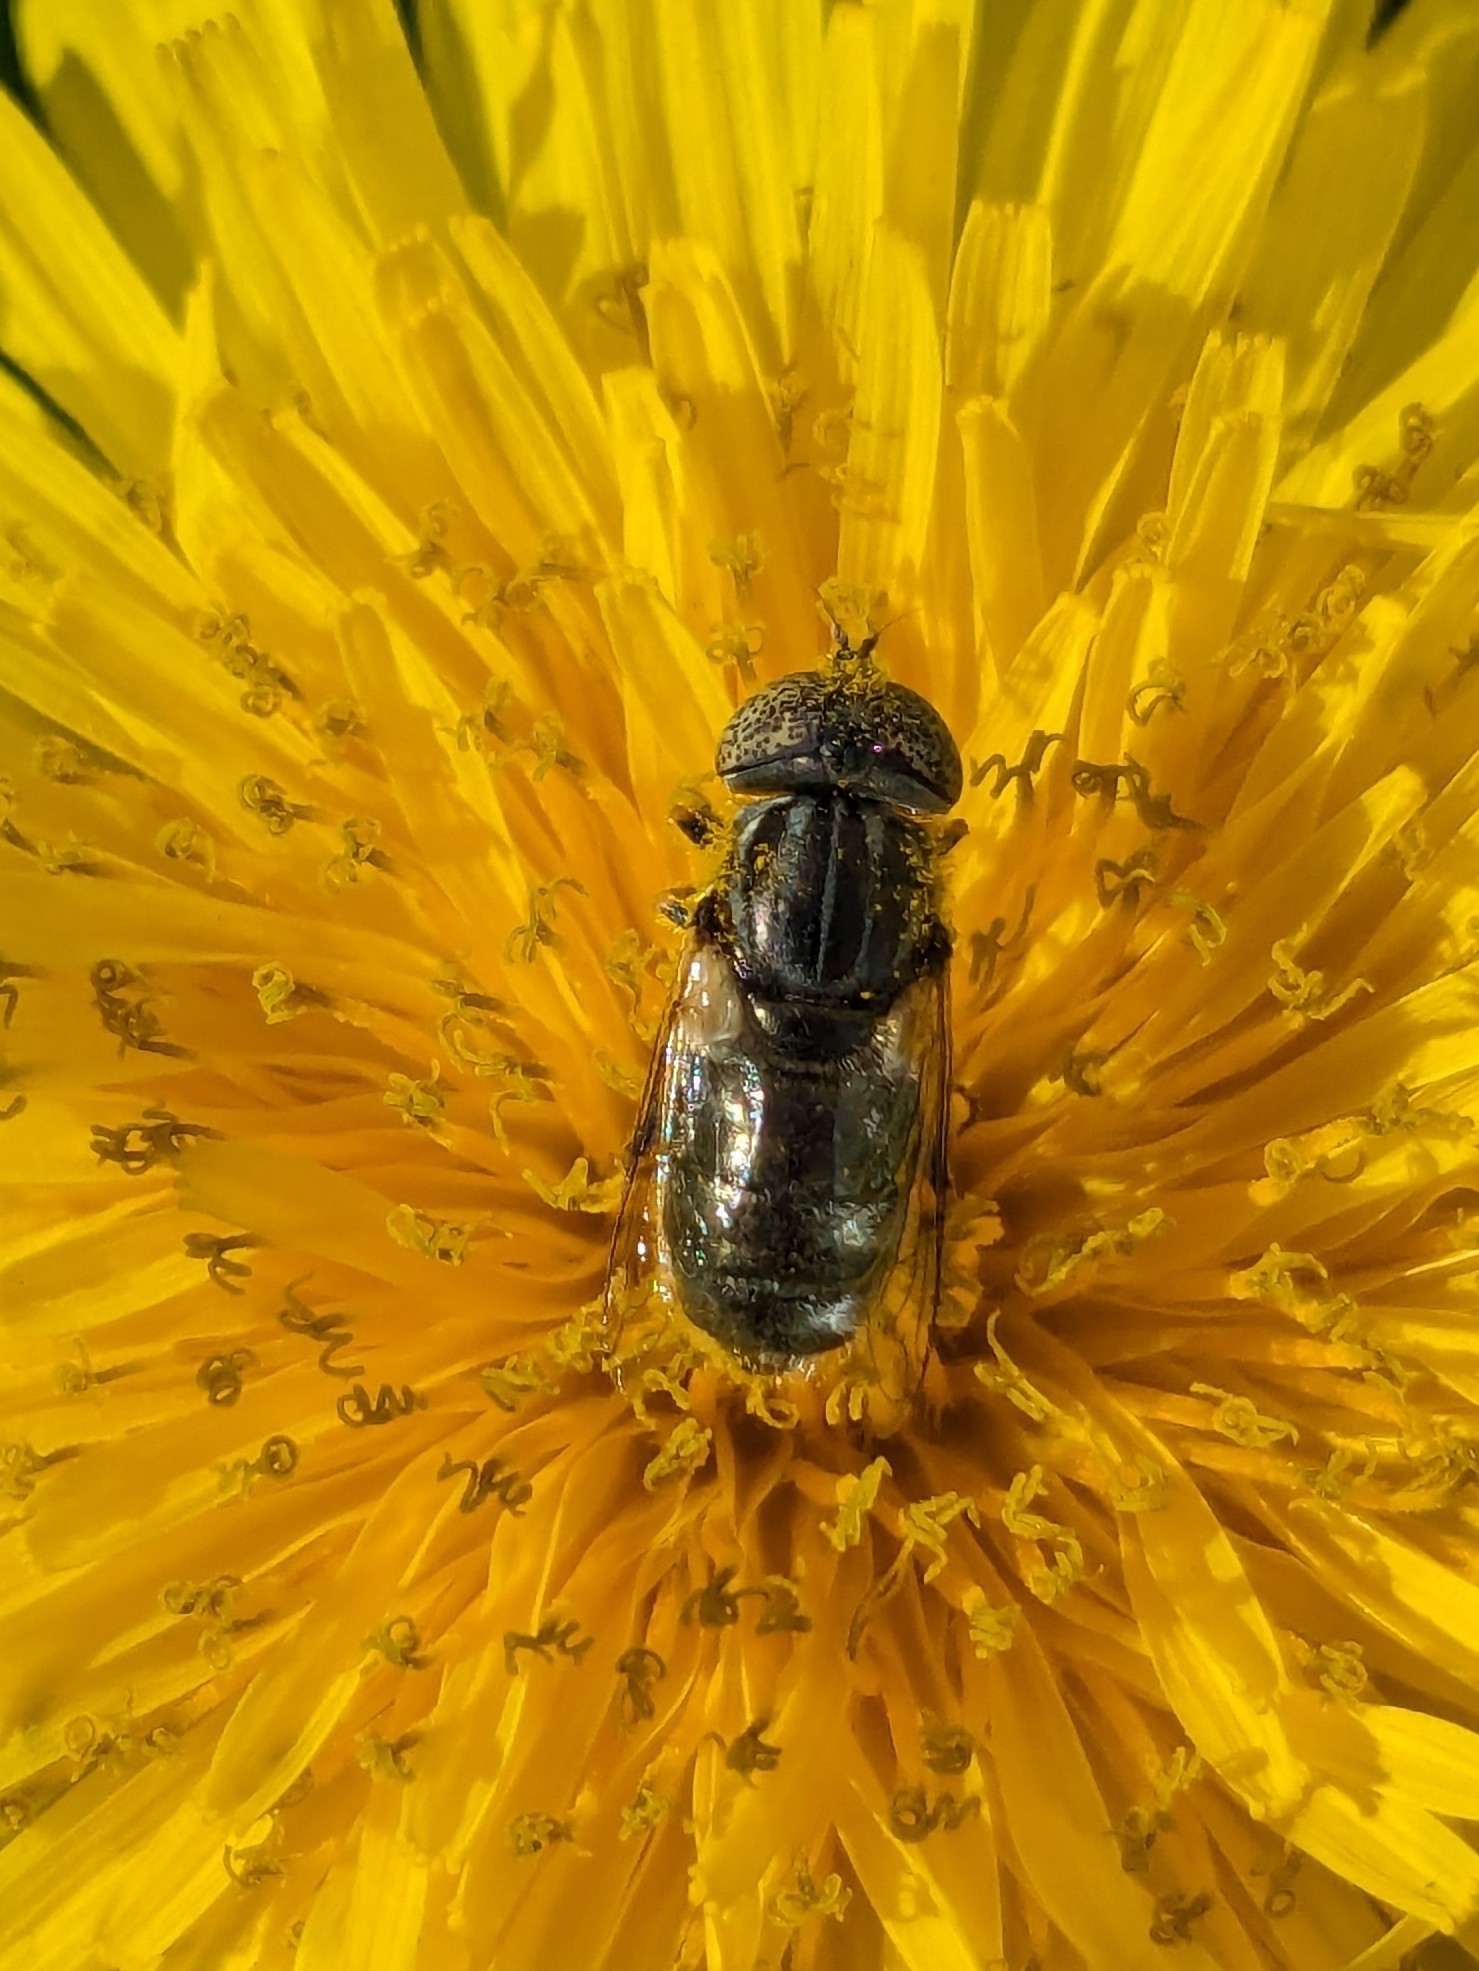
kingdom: Animalia
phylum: Arthropoda
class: Insecta
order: Diptera
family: Syrphidae
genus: Eristalinus
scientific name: Eristalinus aeneus
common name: Syrphid fly
